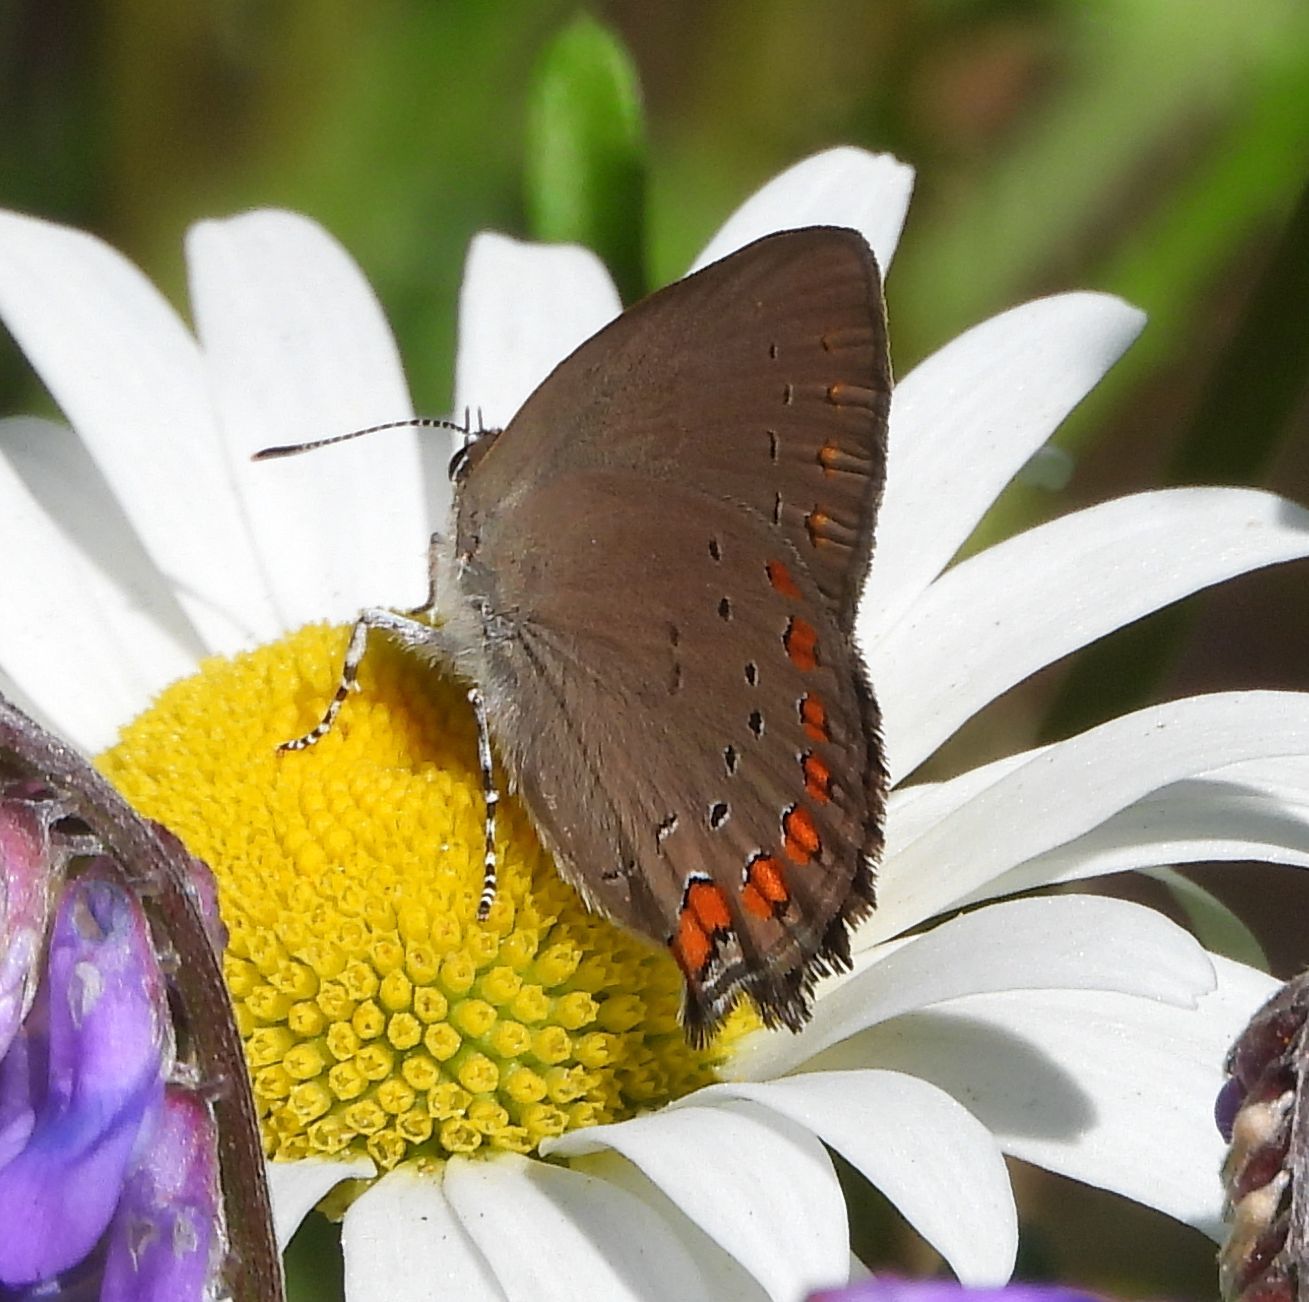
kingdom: Animalia
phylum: Arthropoda
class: Insecta
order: Lepidoptera
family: Lycaenidae
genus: Harkenclenus
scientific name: Harkenclenus titus
